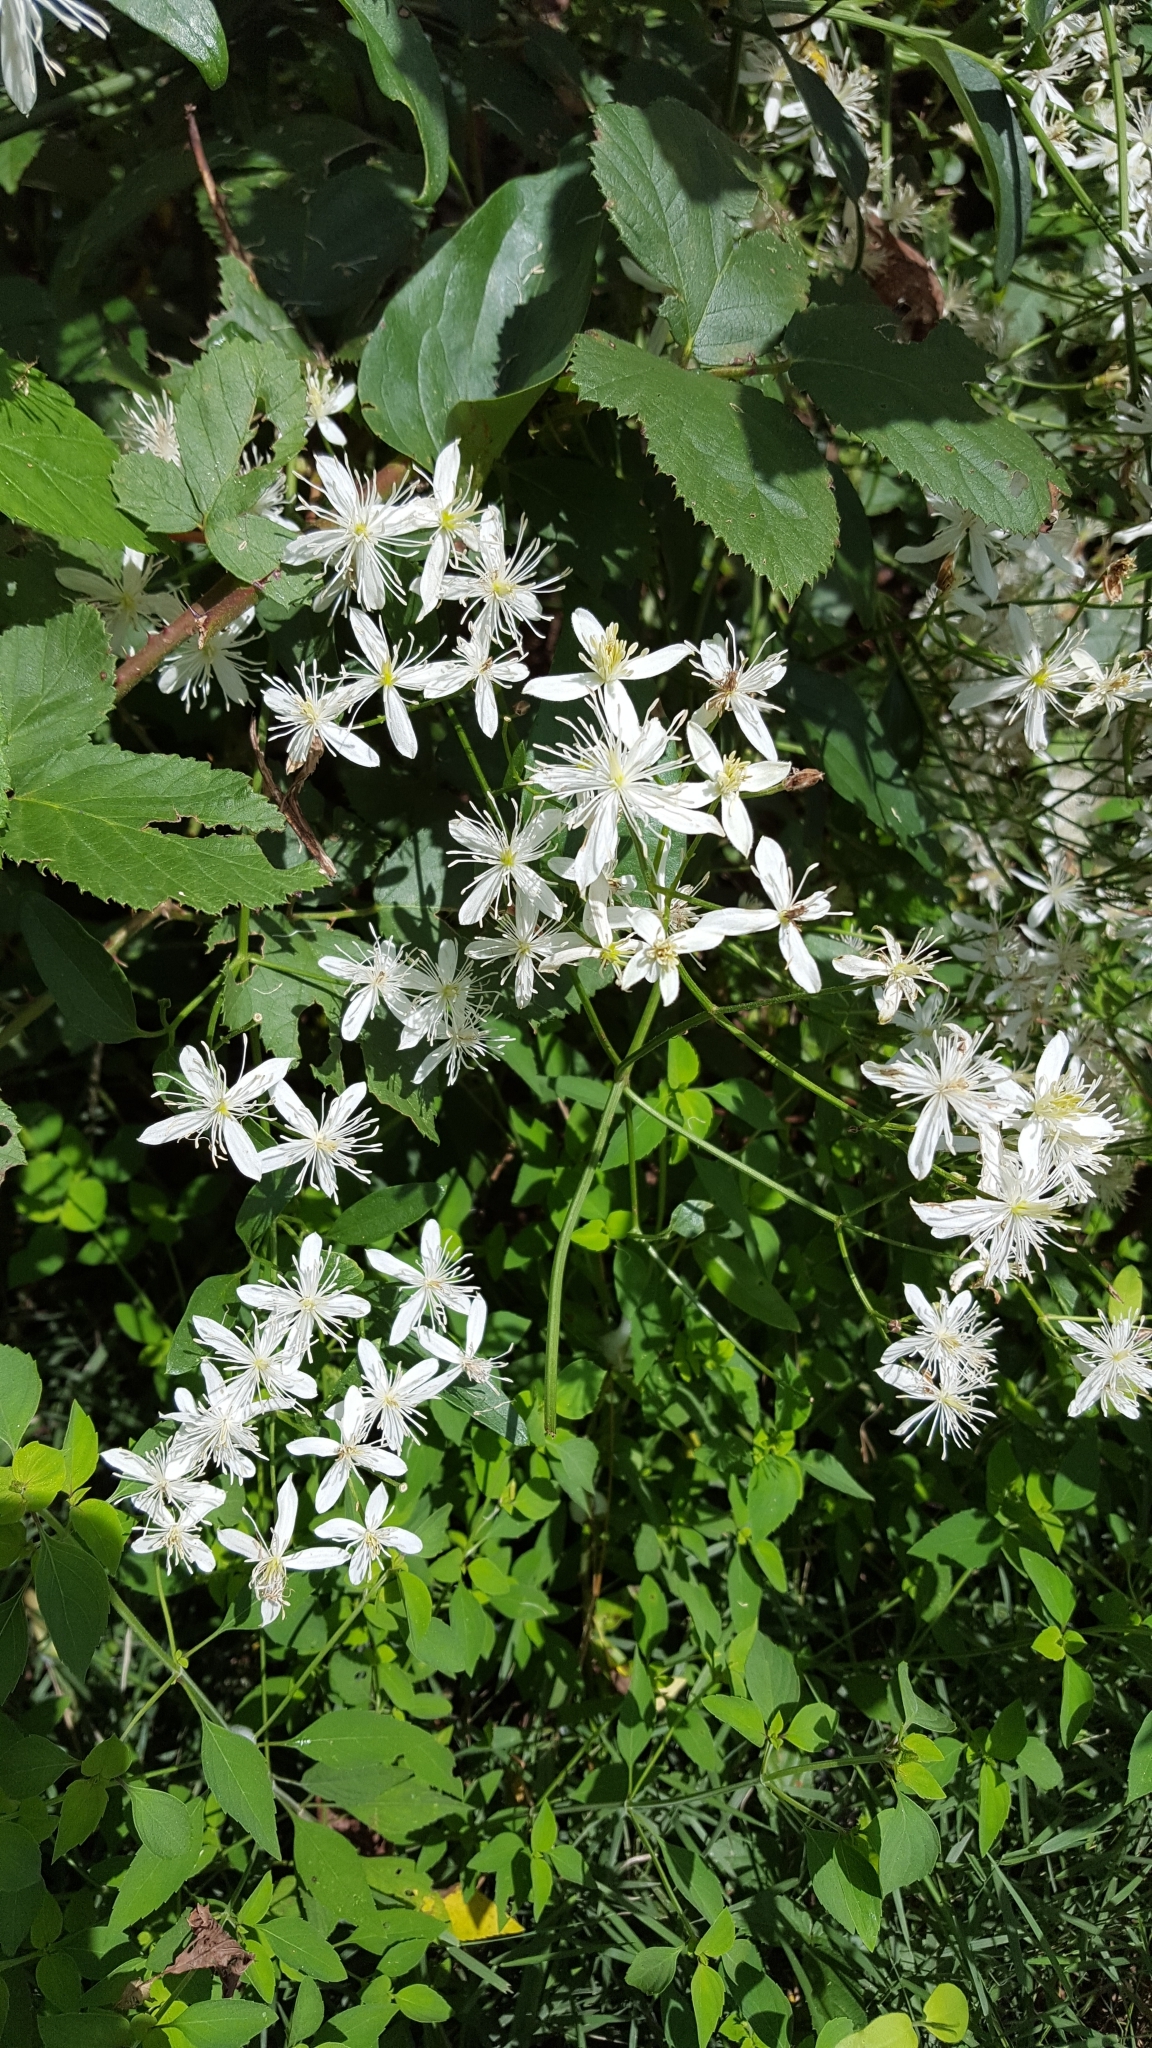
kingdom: Plantae
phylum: Tracheophyta
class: Magnoliopsida
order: Ranunculales
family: Ranunculaceae
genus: Clematis
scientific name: Clematis terniflora
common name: Sweet autumn clematis
